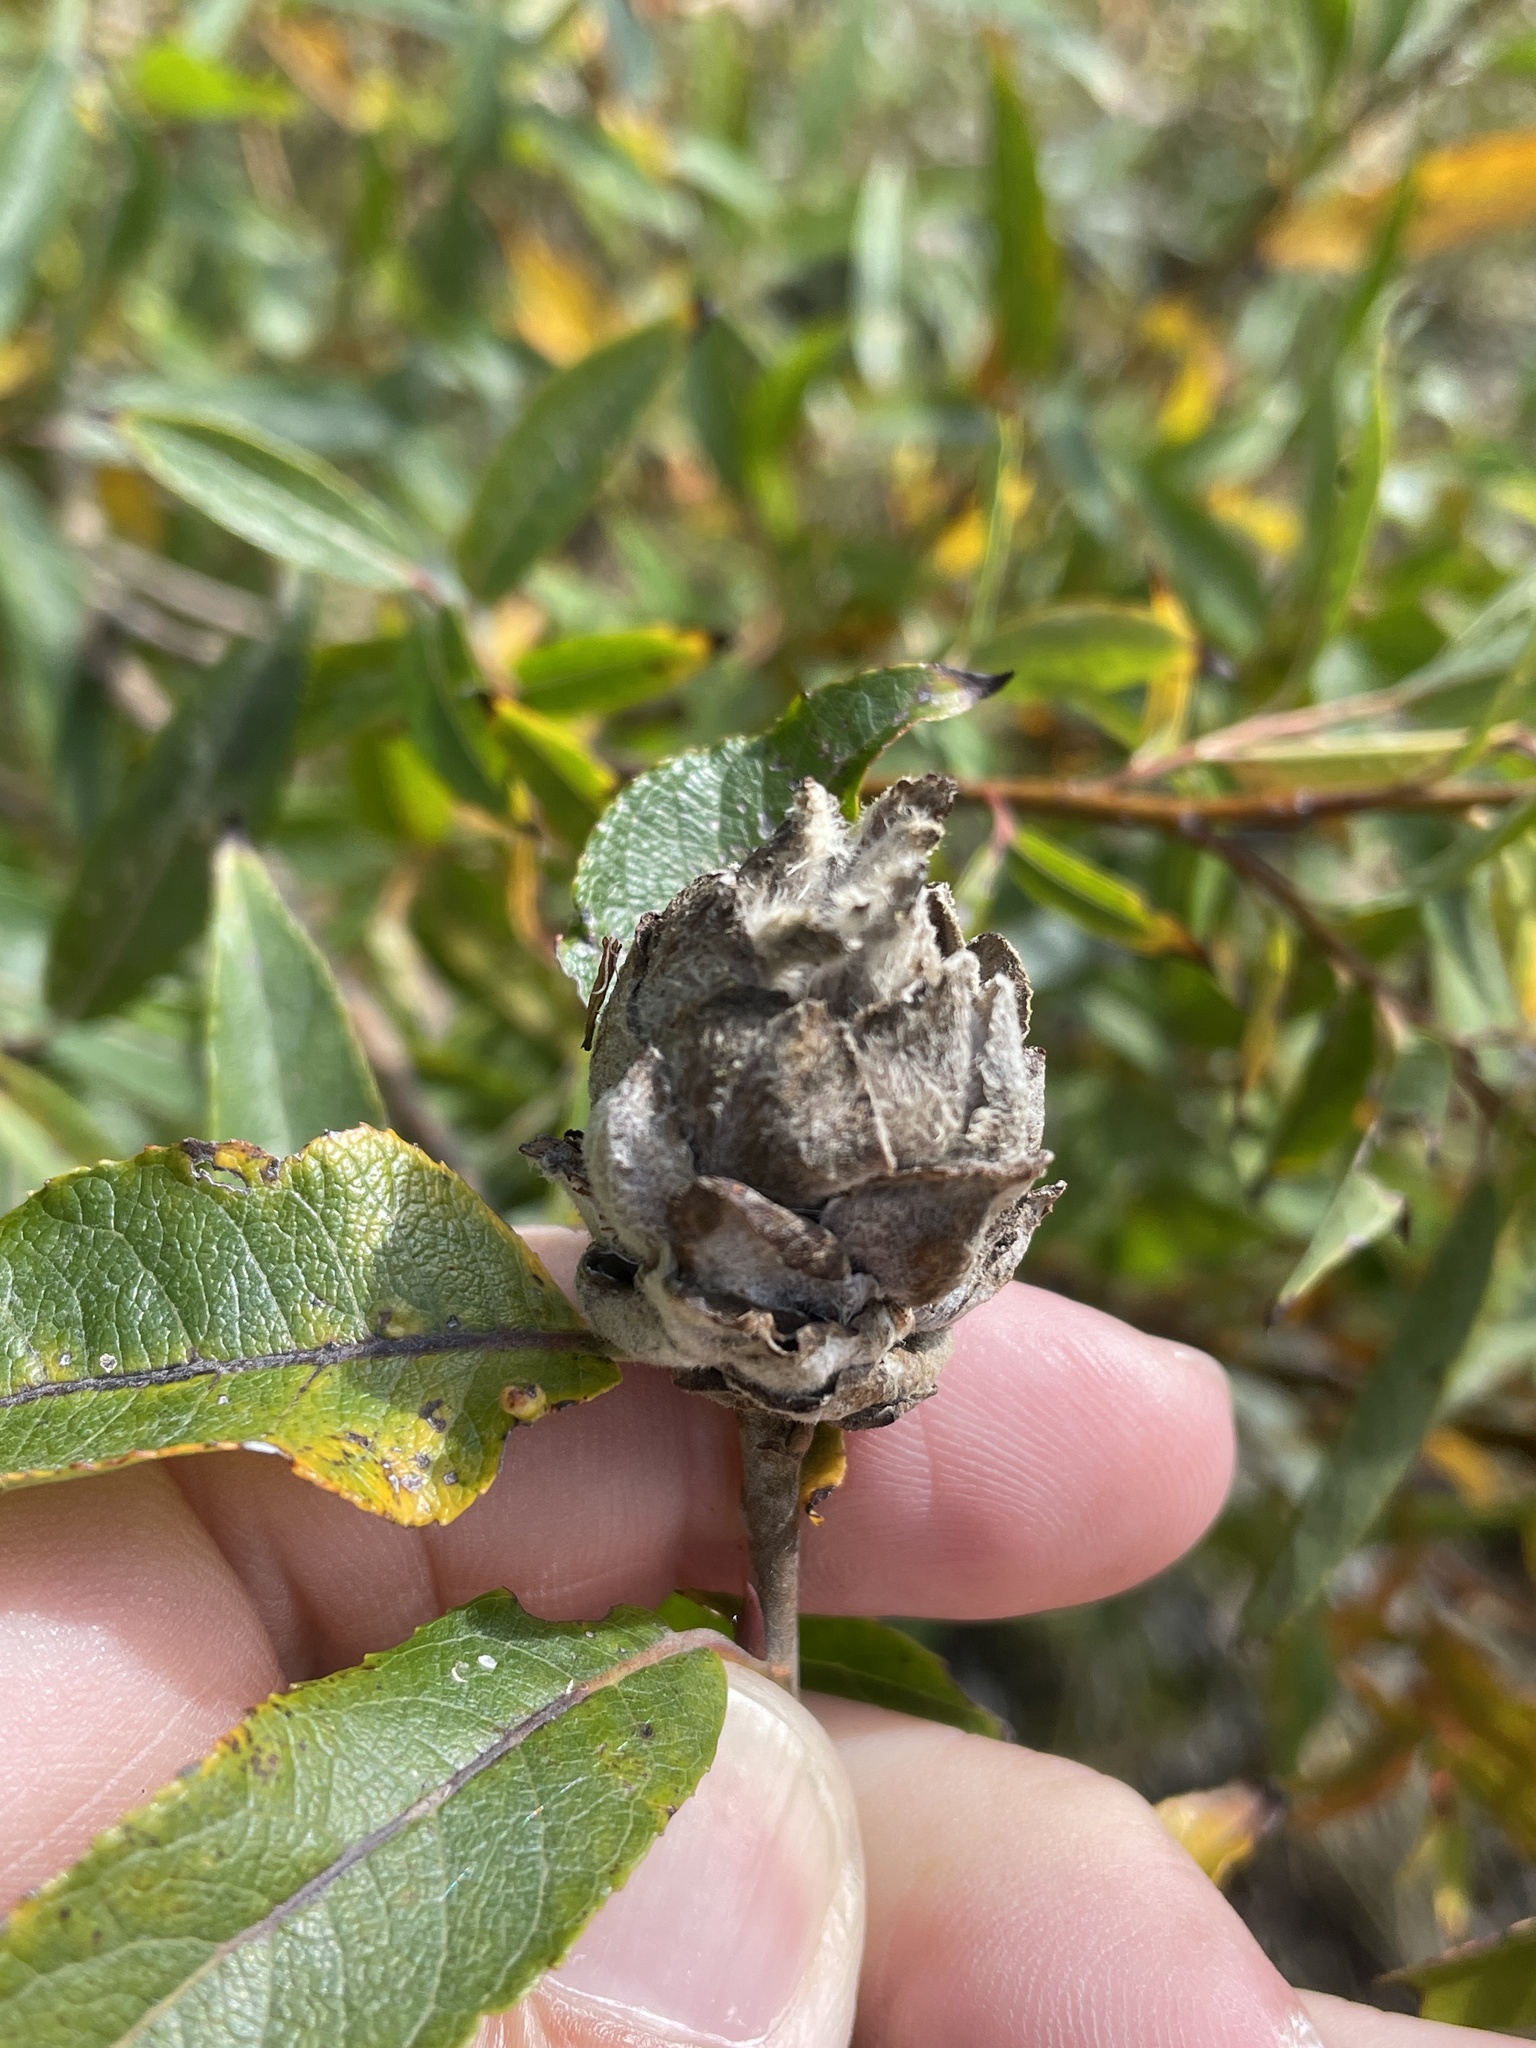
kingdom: Animalia
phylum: Arthropoda
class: Insecta
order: Diptera
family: Cecidomyiidae
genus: Rabdophaga
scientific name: Rabdophaga strobiloides
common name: Willow pinecone gall midge
